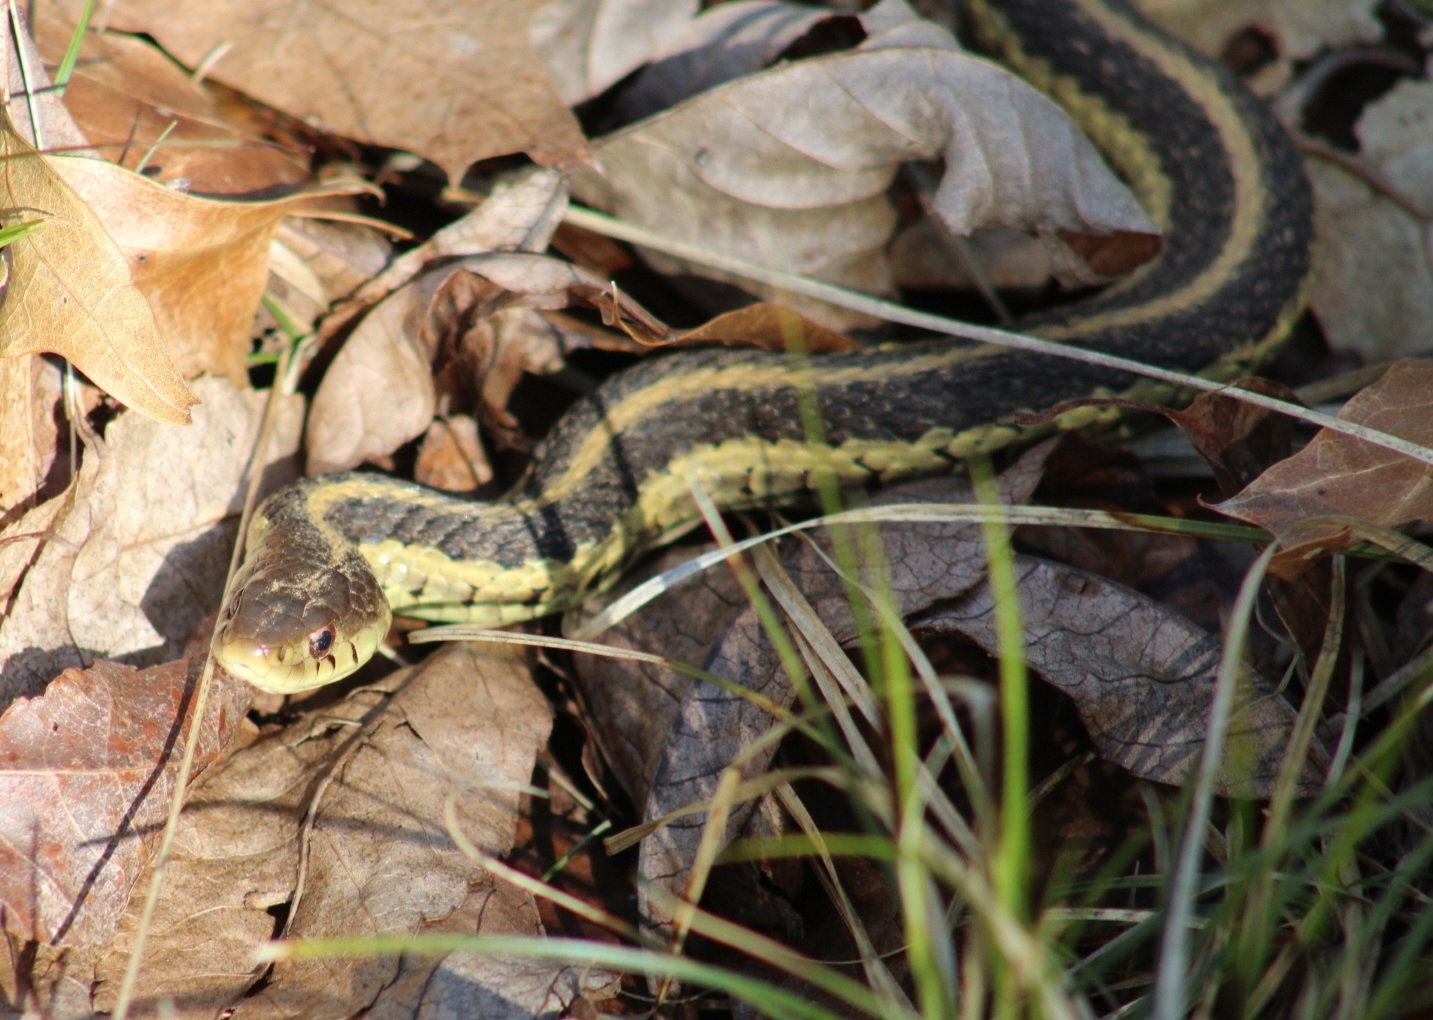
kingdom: Animalia
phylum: Chordata
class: Squamata
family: Colubridae
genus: Thamnophis
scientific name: Thamnophis sirtalis
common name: Common garter snake
